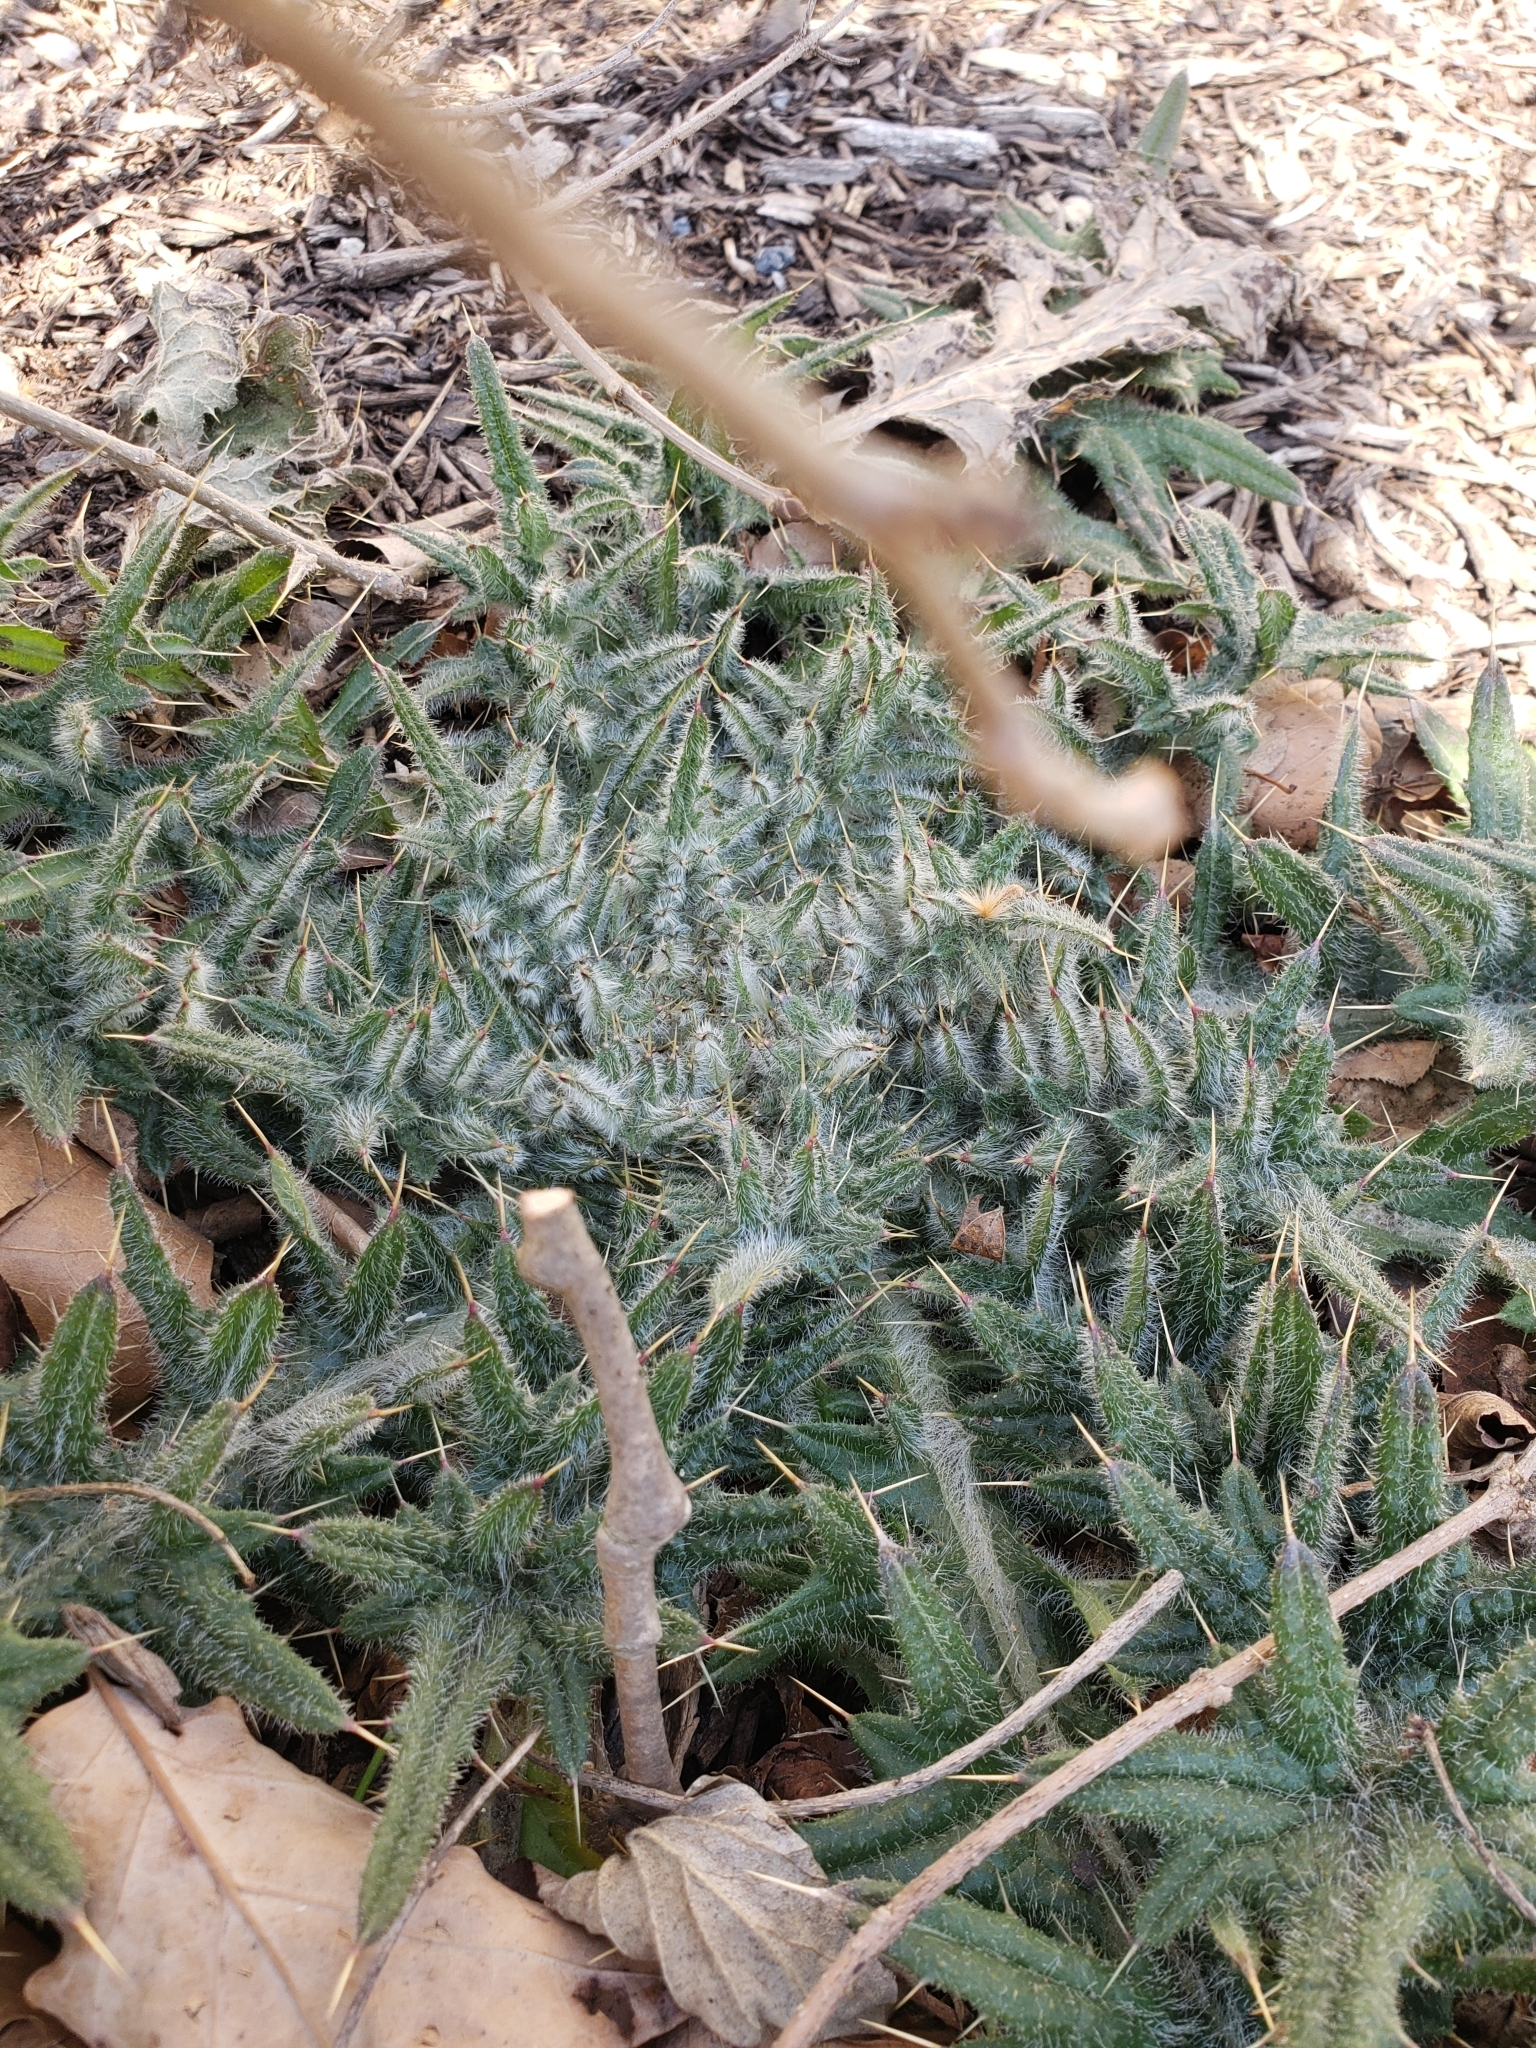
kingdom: Plantae
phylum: Tracheophyta
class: Magnoliopsida
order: Asterales
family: Asteraceae
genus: Cirsium
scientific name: Cirsium vulgare
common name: Bull thistle
